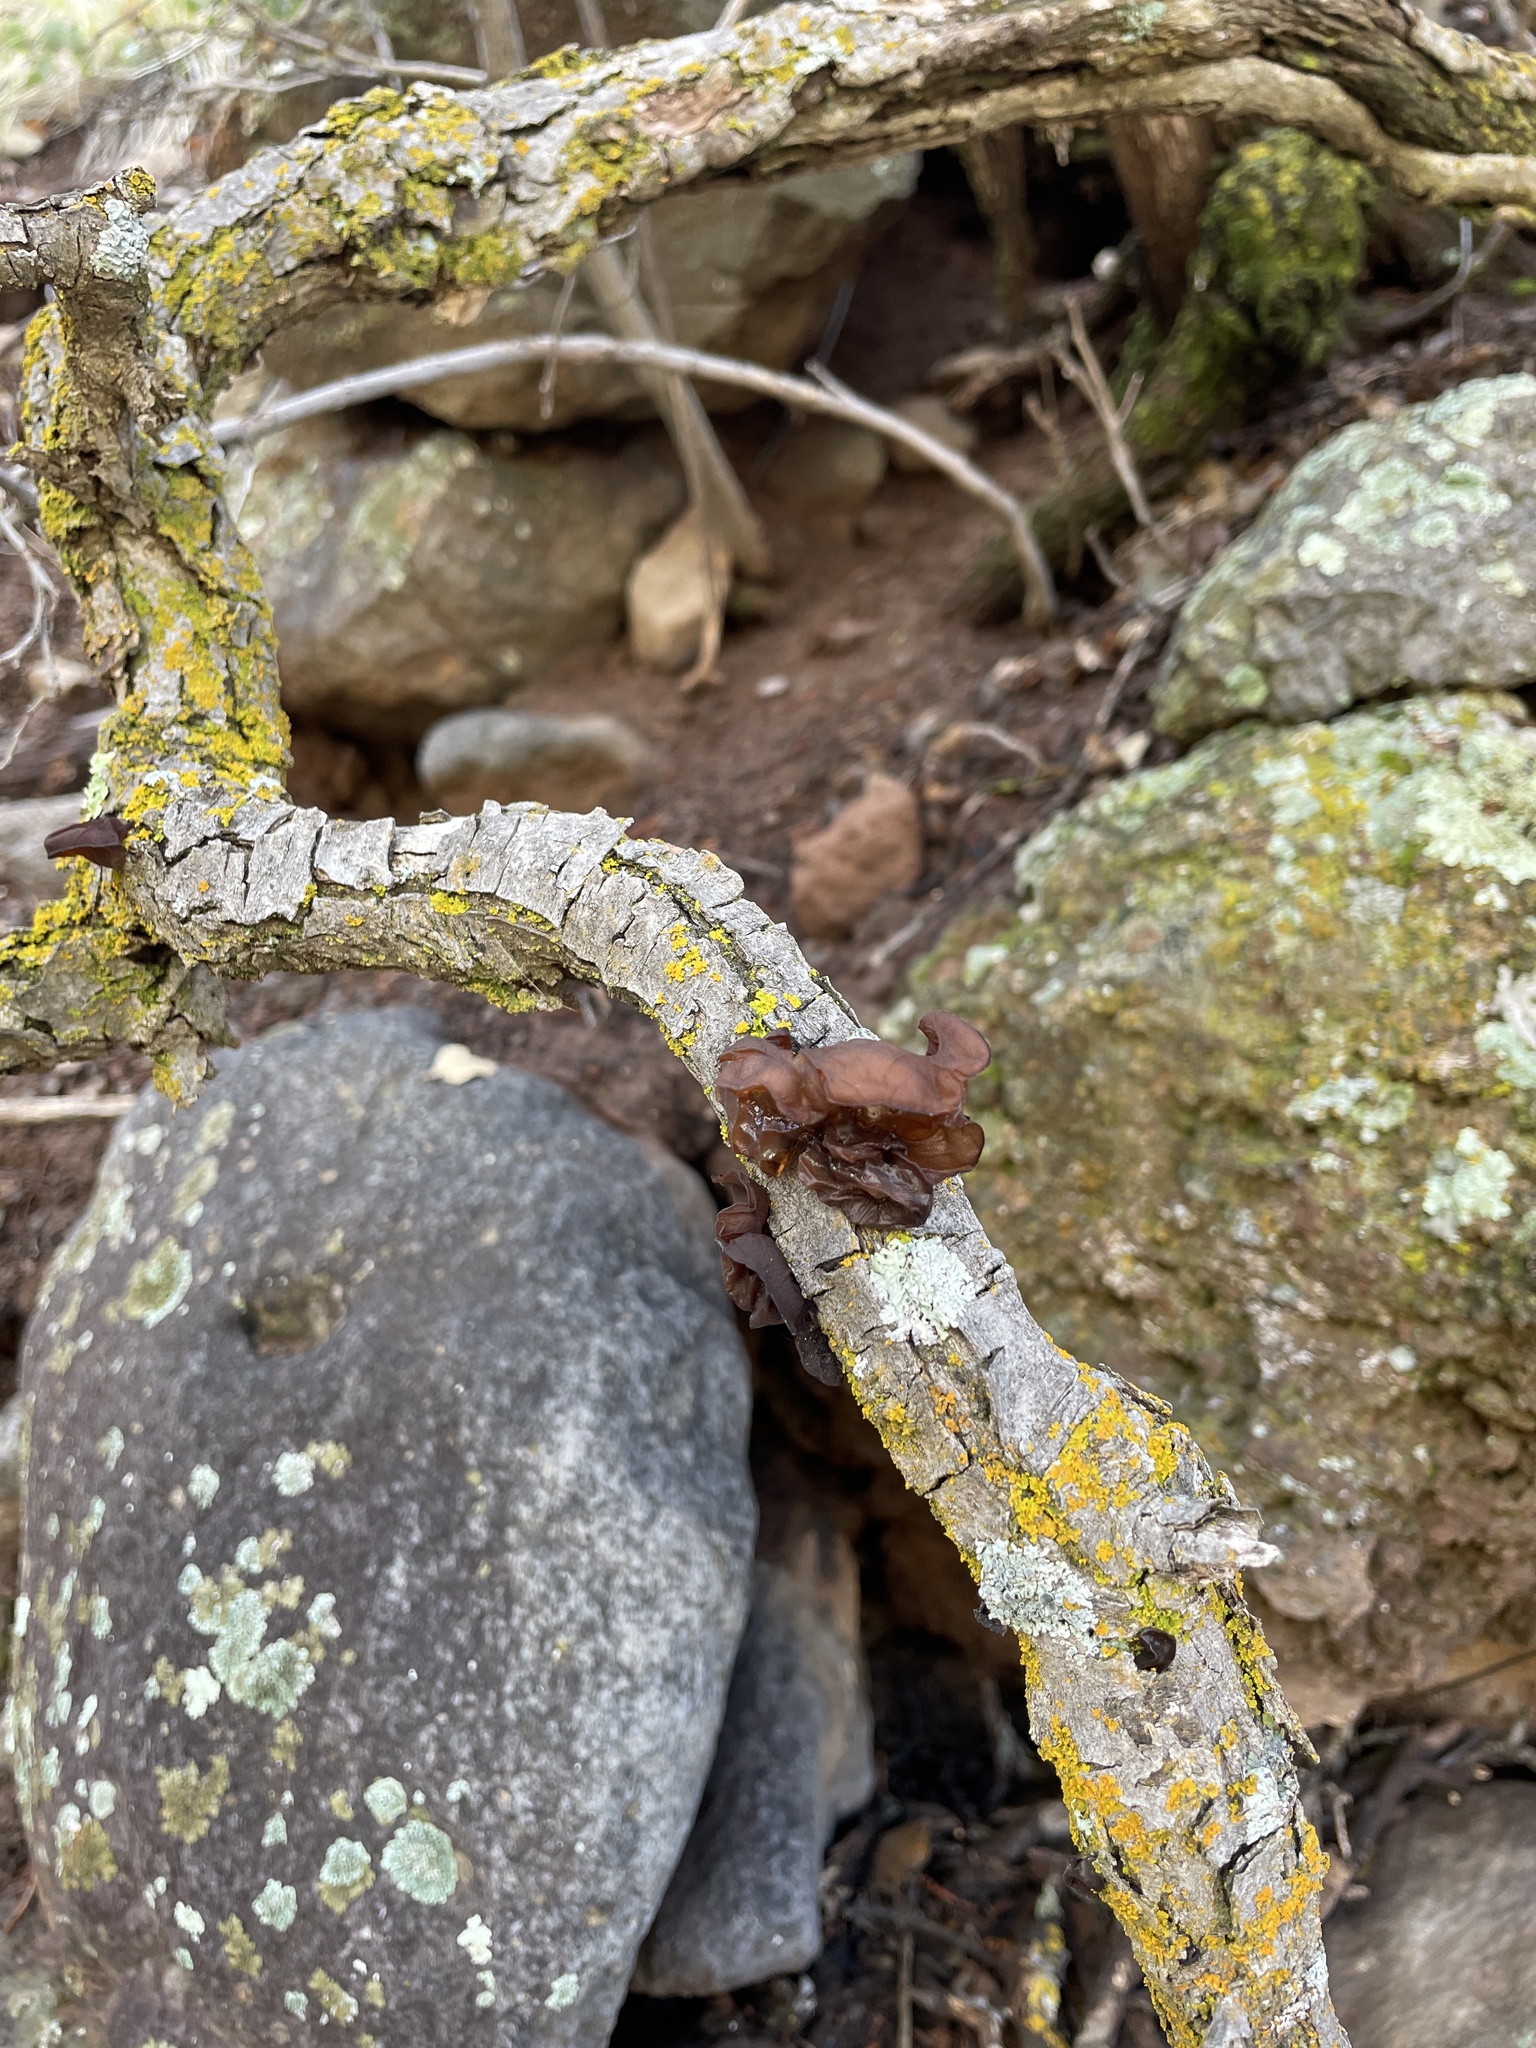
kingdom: Fungi
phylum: Basidiomycota
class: Agaricomycetes
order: Auriculariales
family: Auriculariaceae
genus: Auricularia
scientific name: Auricularia angiospermarum
